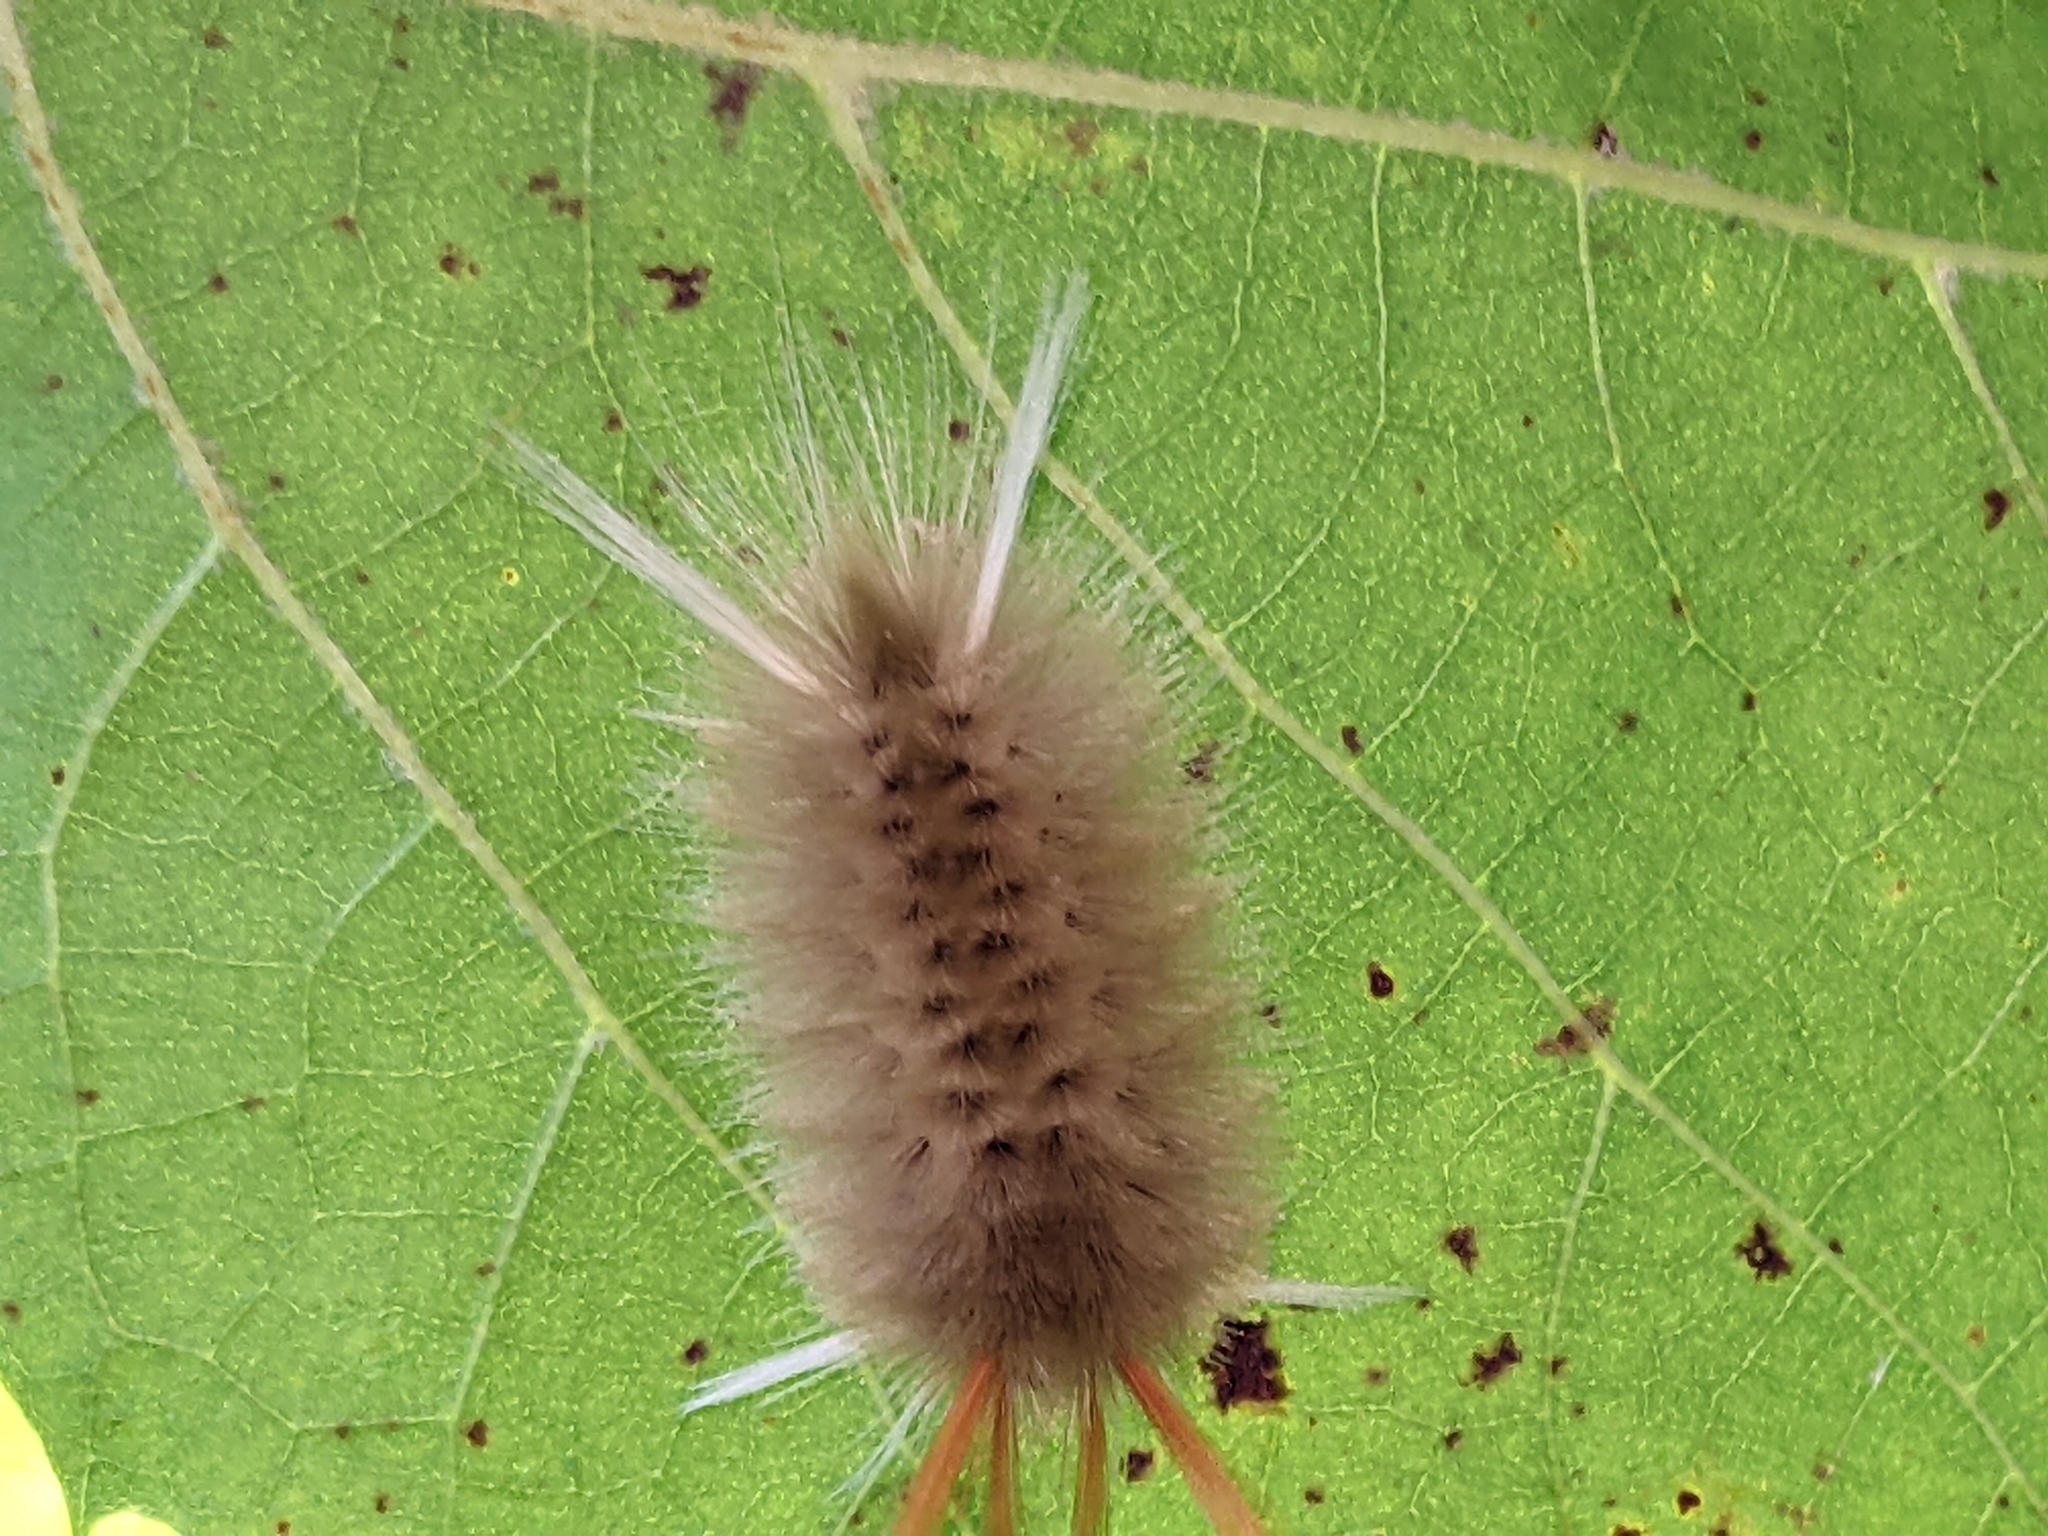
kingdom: Animalia
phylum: Arthropoda
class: Insecta
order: Lepidoptera
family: Erebidae
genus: Halysidota
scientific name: Halysidota harrisii
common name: Sycamore tussock moth
